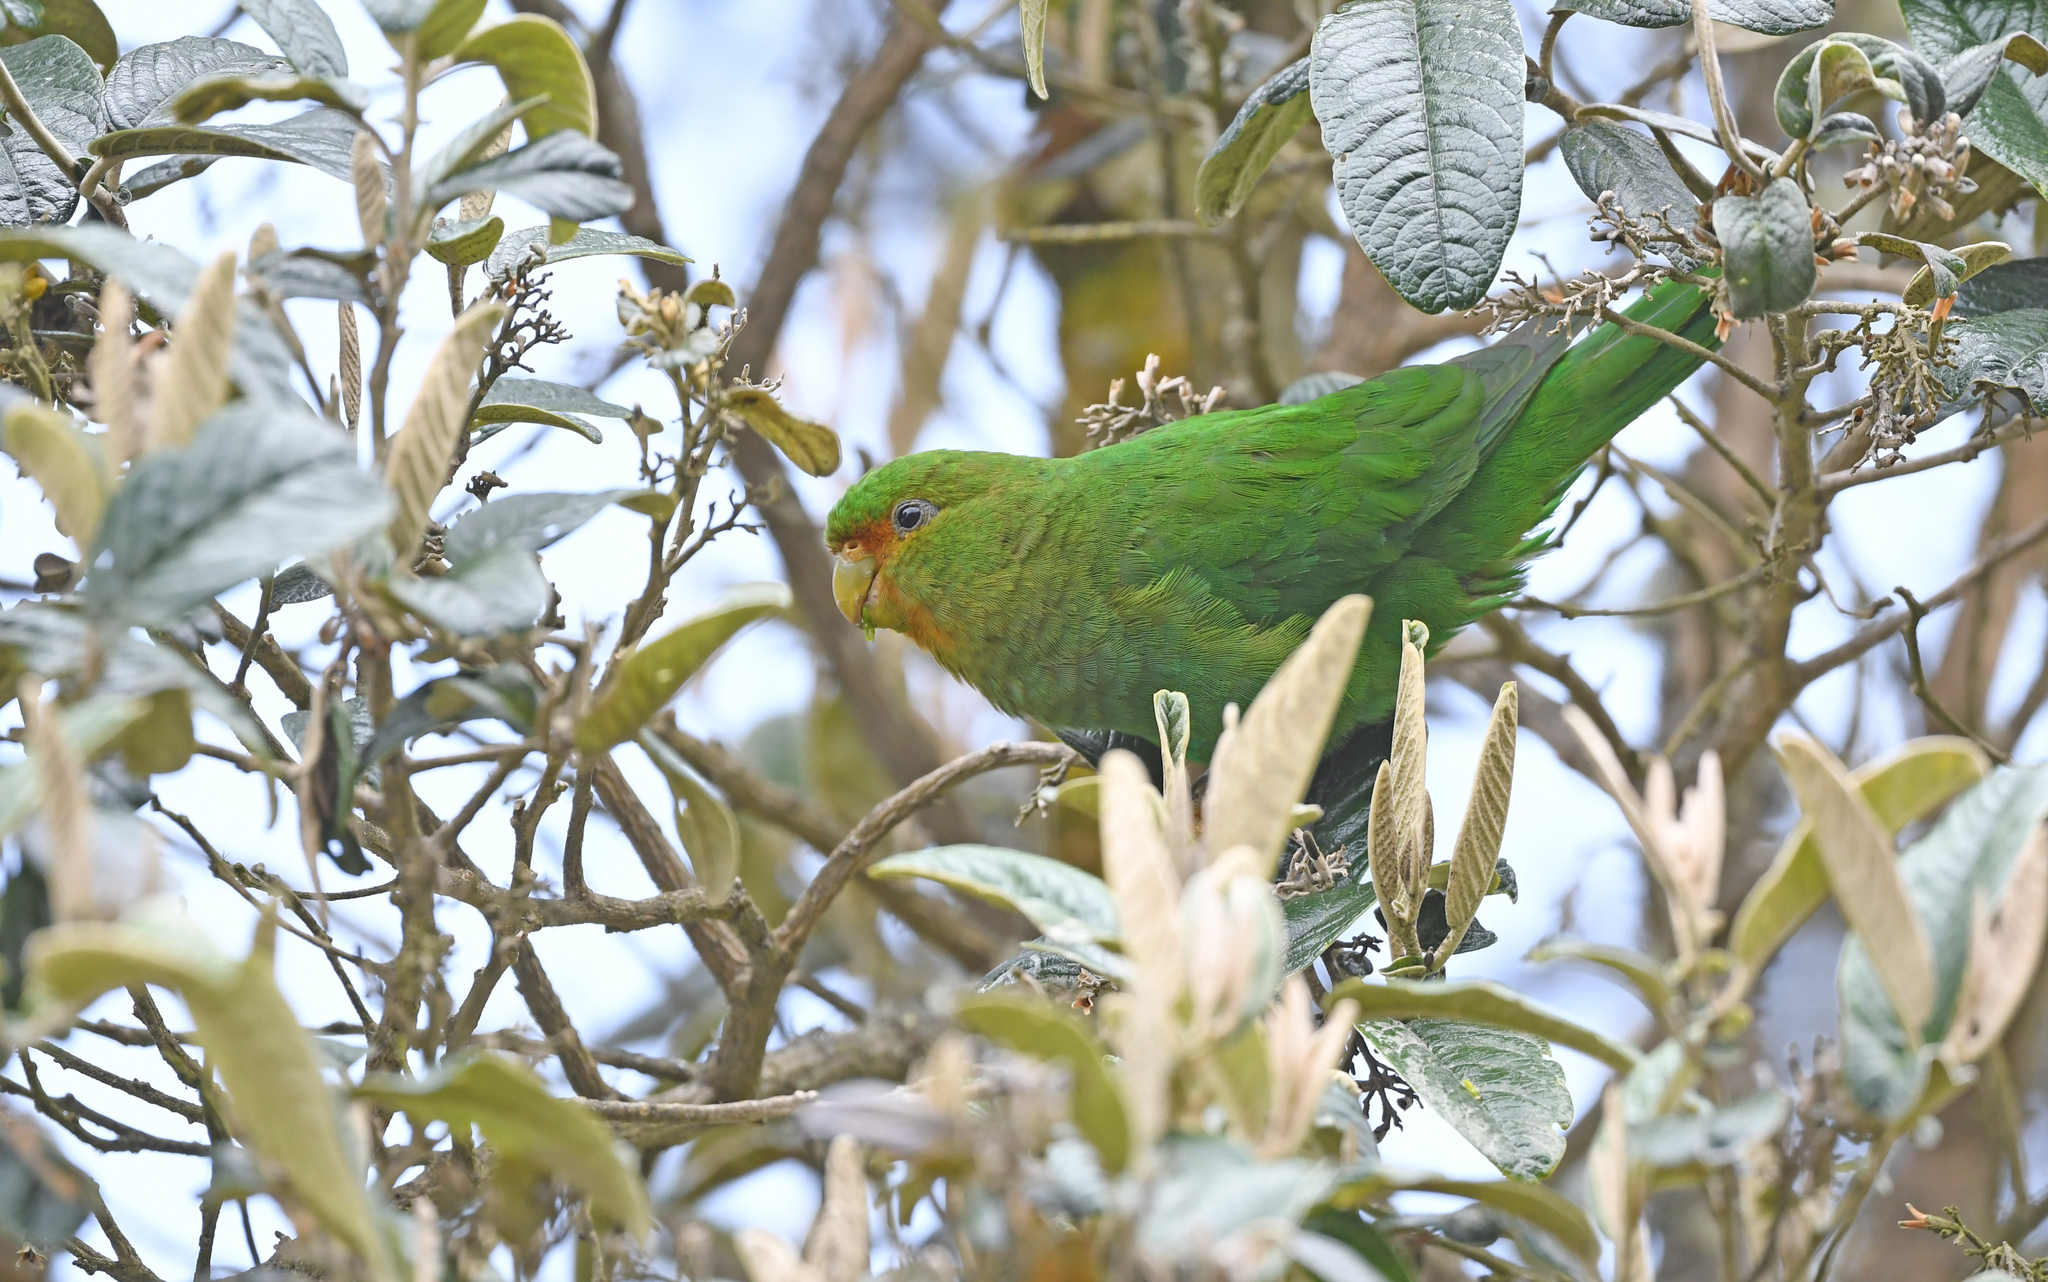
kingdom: Animalia
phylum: Chordata
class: Aves
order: Psittaciformes
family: Psittacidae
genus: Bolborhynchus
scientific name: Bolborhynchus ferrugineifrons
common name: Rufous-fronted parakeet
